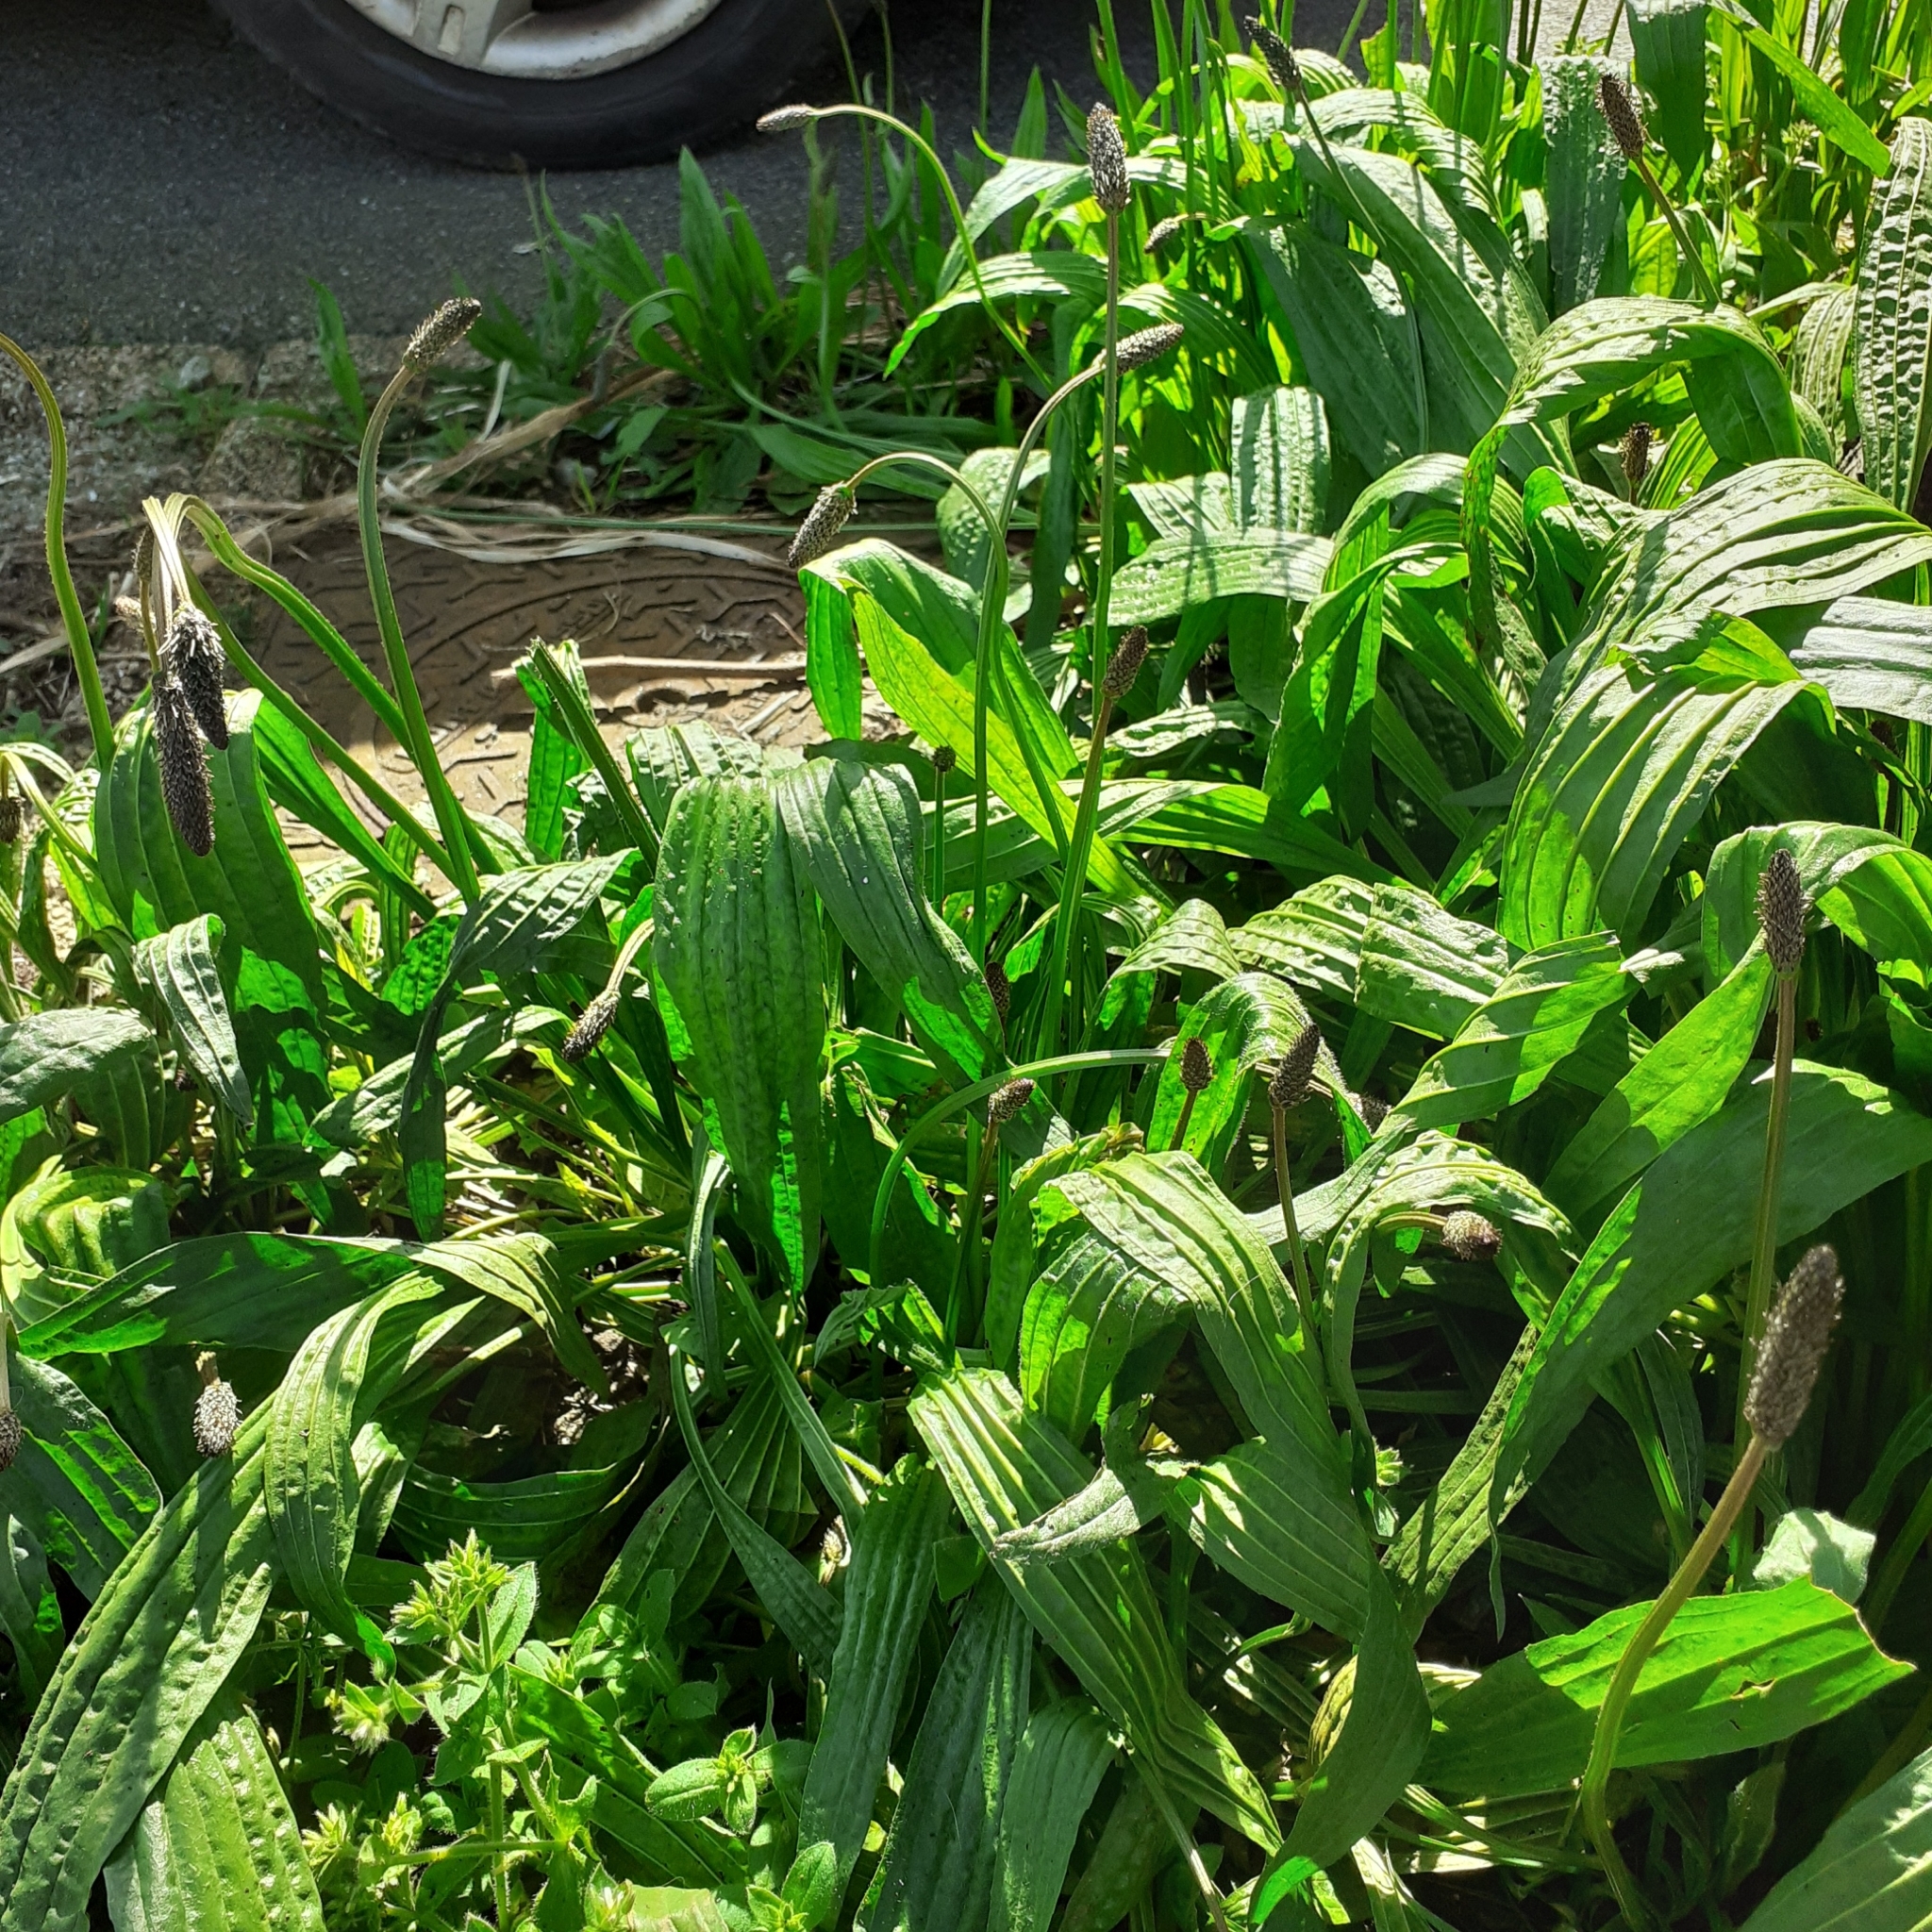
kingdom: Plantae
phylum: Tracheophyta
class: Magnoliopsida
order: Lamiales
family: Plantaginaceae
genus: Plantago
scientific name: Plantago lanceolata
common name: Ribwort plantain
